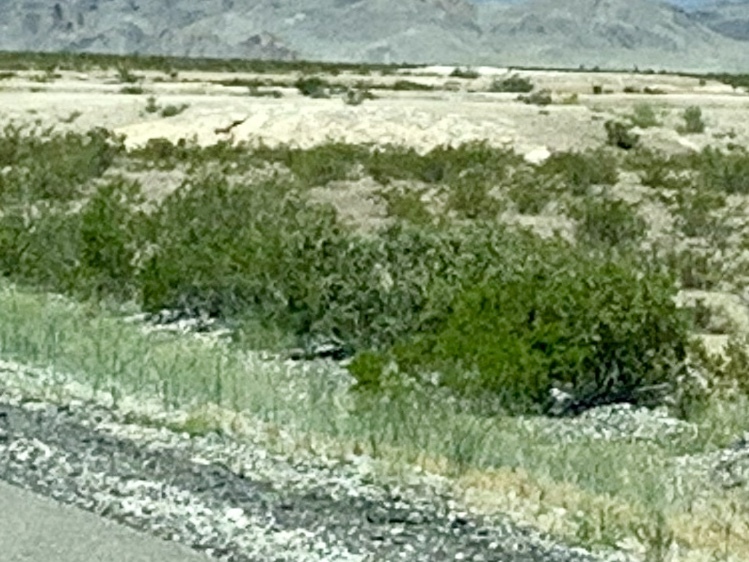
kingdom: Plantae
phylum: Tracheophyta
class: Magnoliopsida
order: Zygophyllales
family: Zygophyllaceae
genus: Larrea
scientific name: Larrea tridentata
